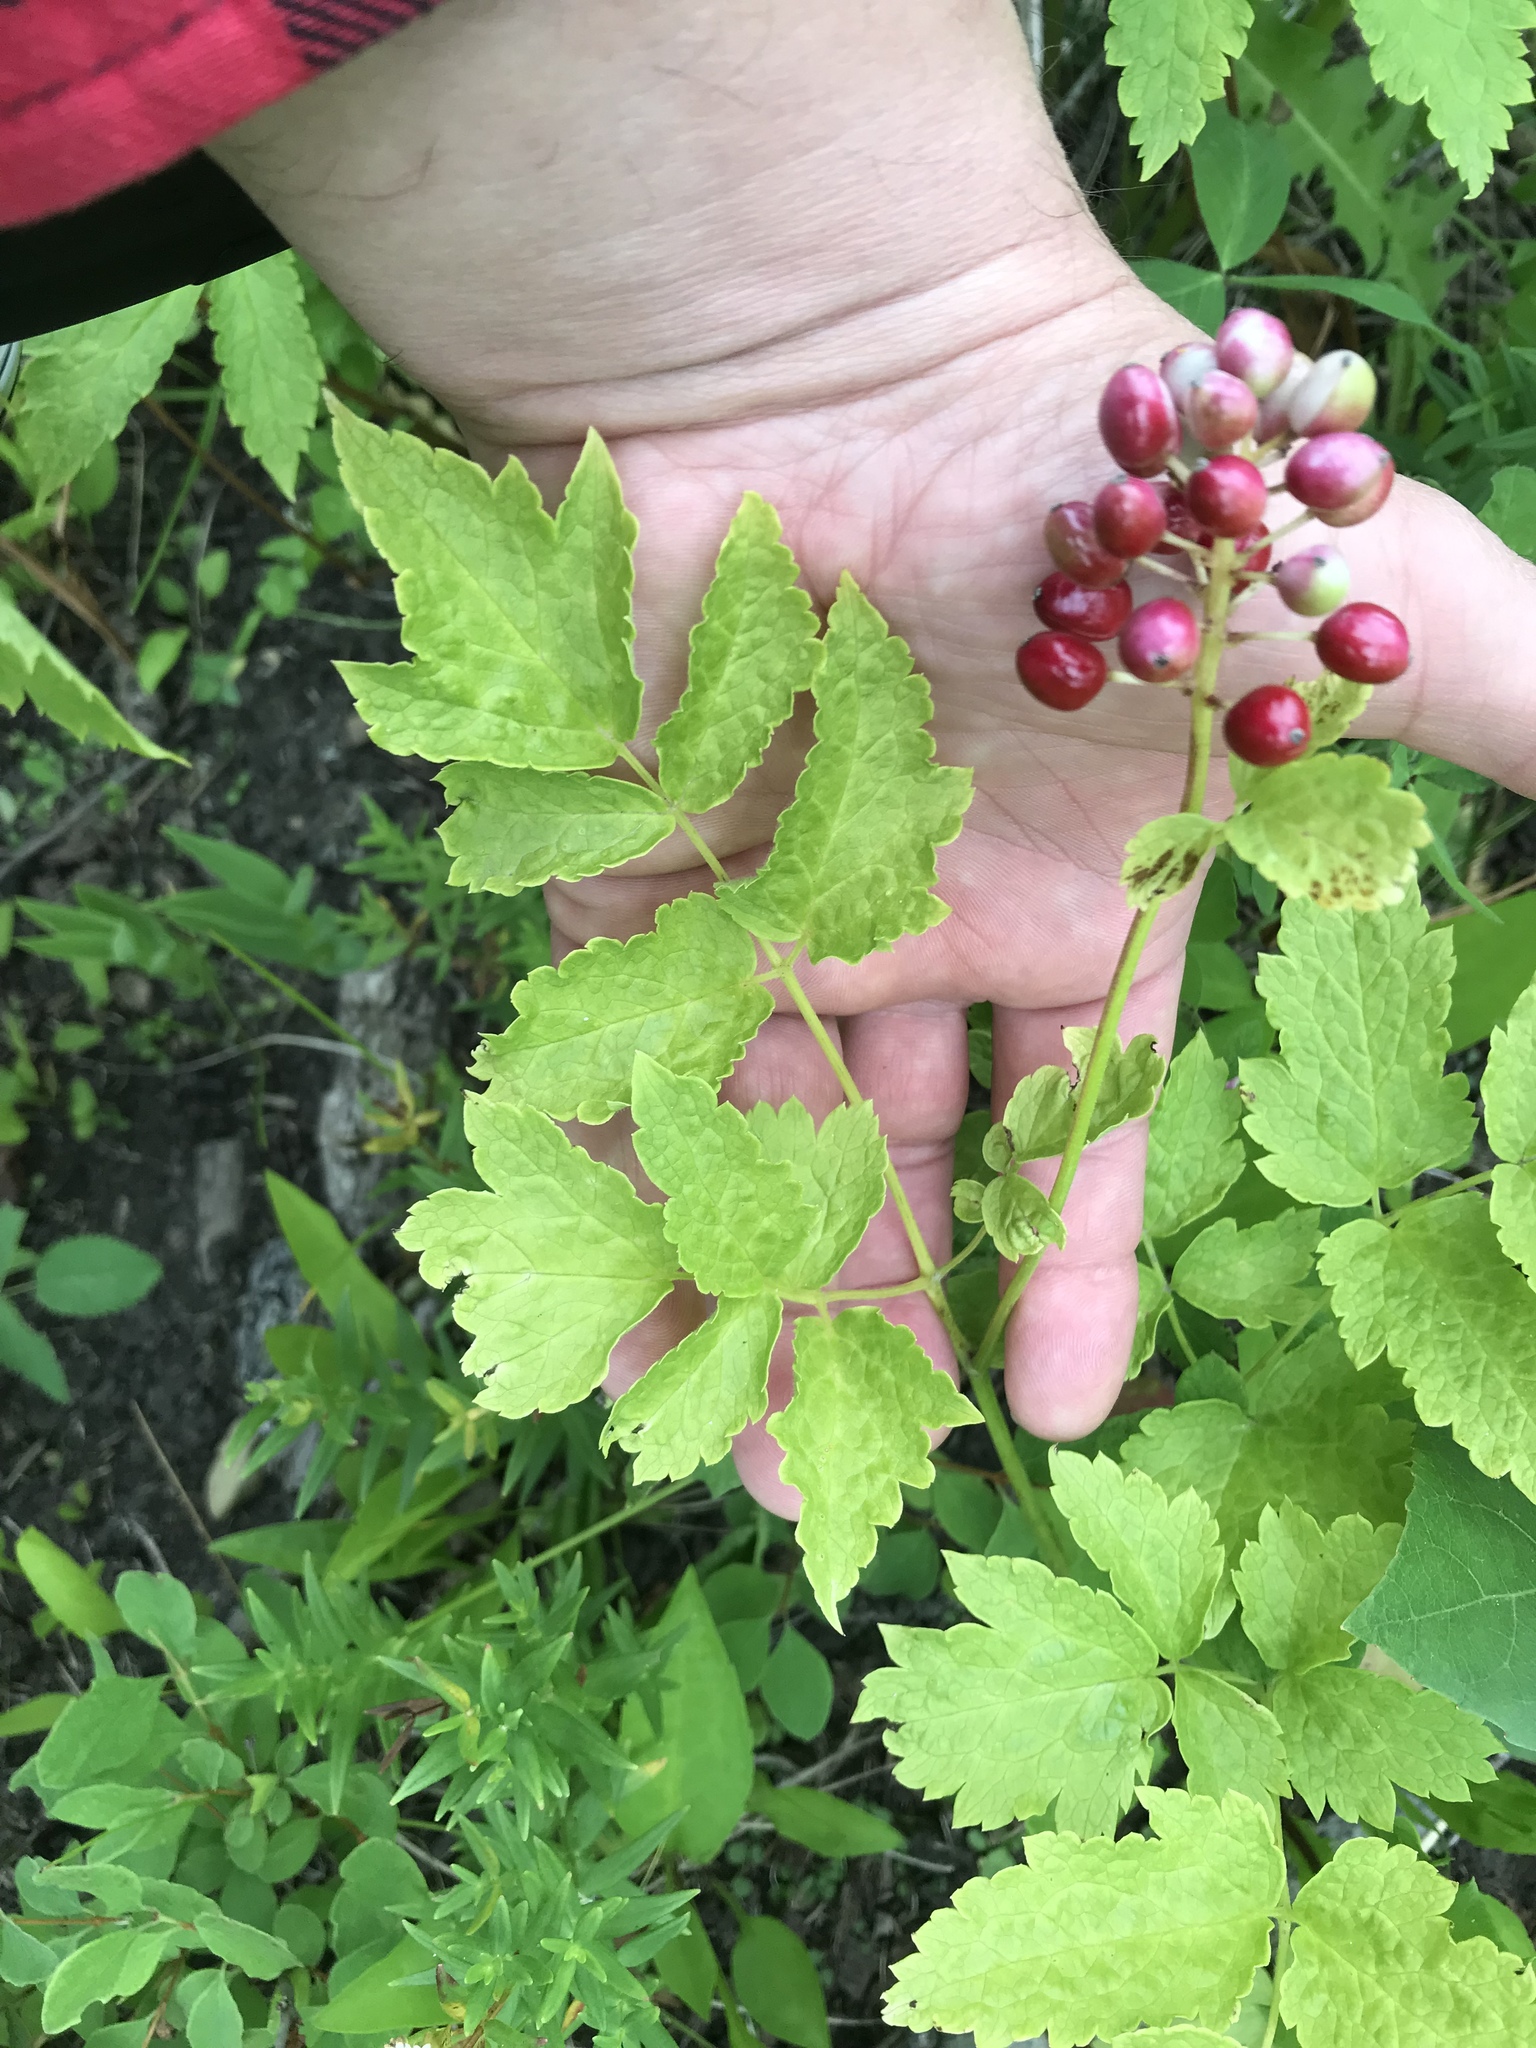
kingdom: Plantae
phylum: Tracheophyta
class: Magnoliopsida
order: Ranunculales
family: Ranunculaceae
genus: Actaea
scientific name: Actaea rubra
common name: Red baneberry
